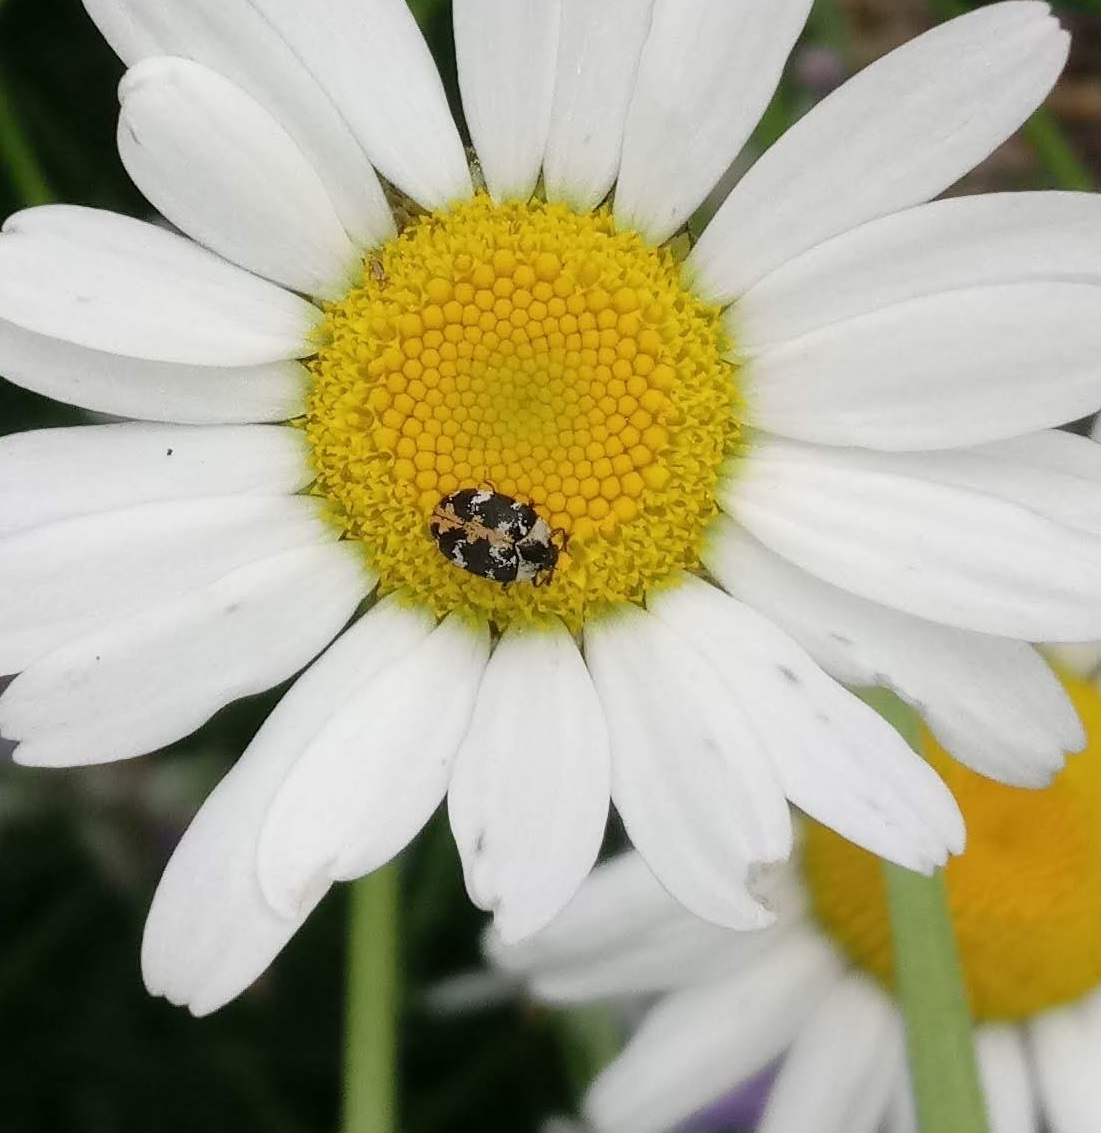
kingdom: Animalia
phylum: Arthropoda
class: Insecta
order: Coleoptera
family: Dermestidae
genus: Anthrenus
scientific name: Anthrenus scrophulariae
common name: Buffalo carpet beetle
